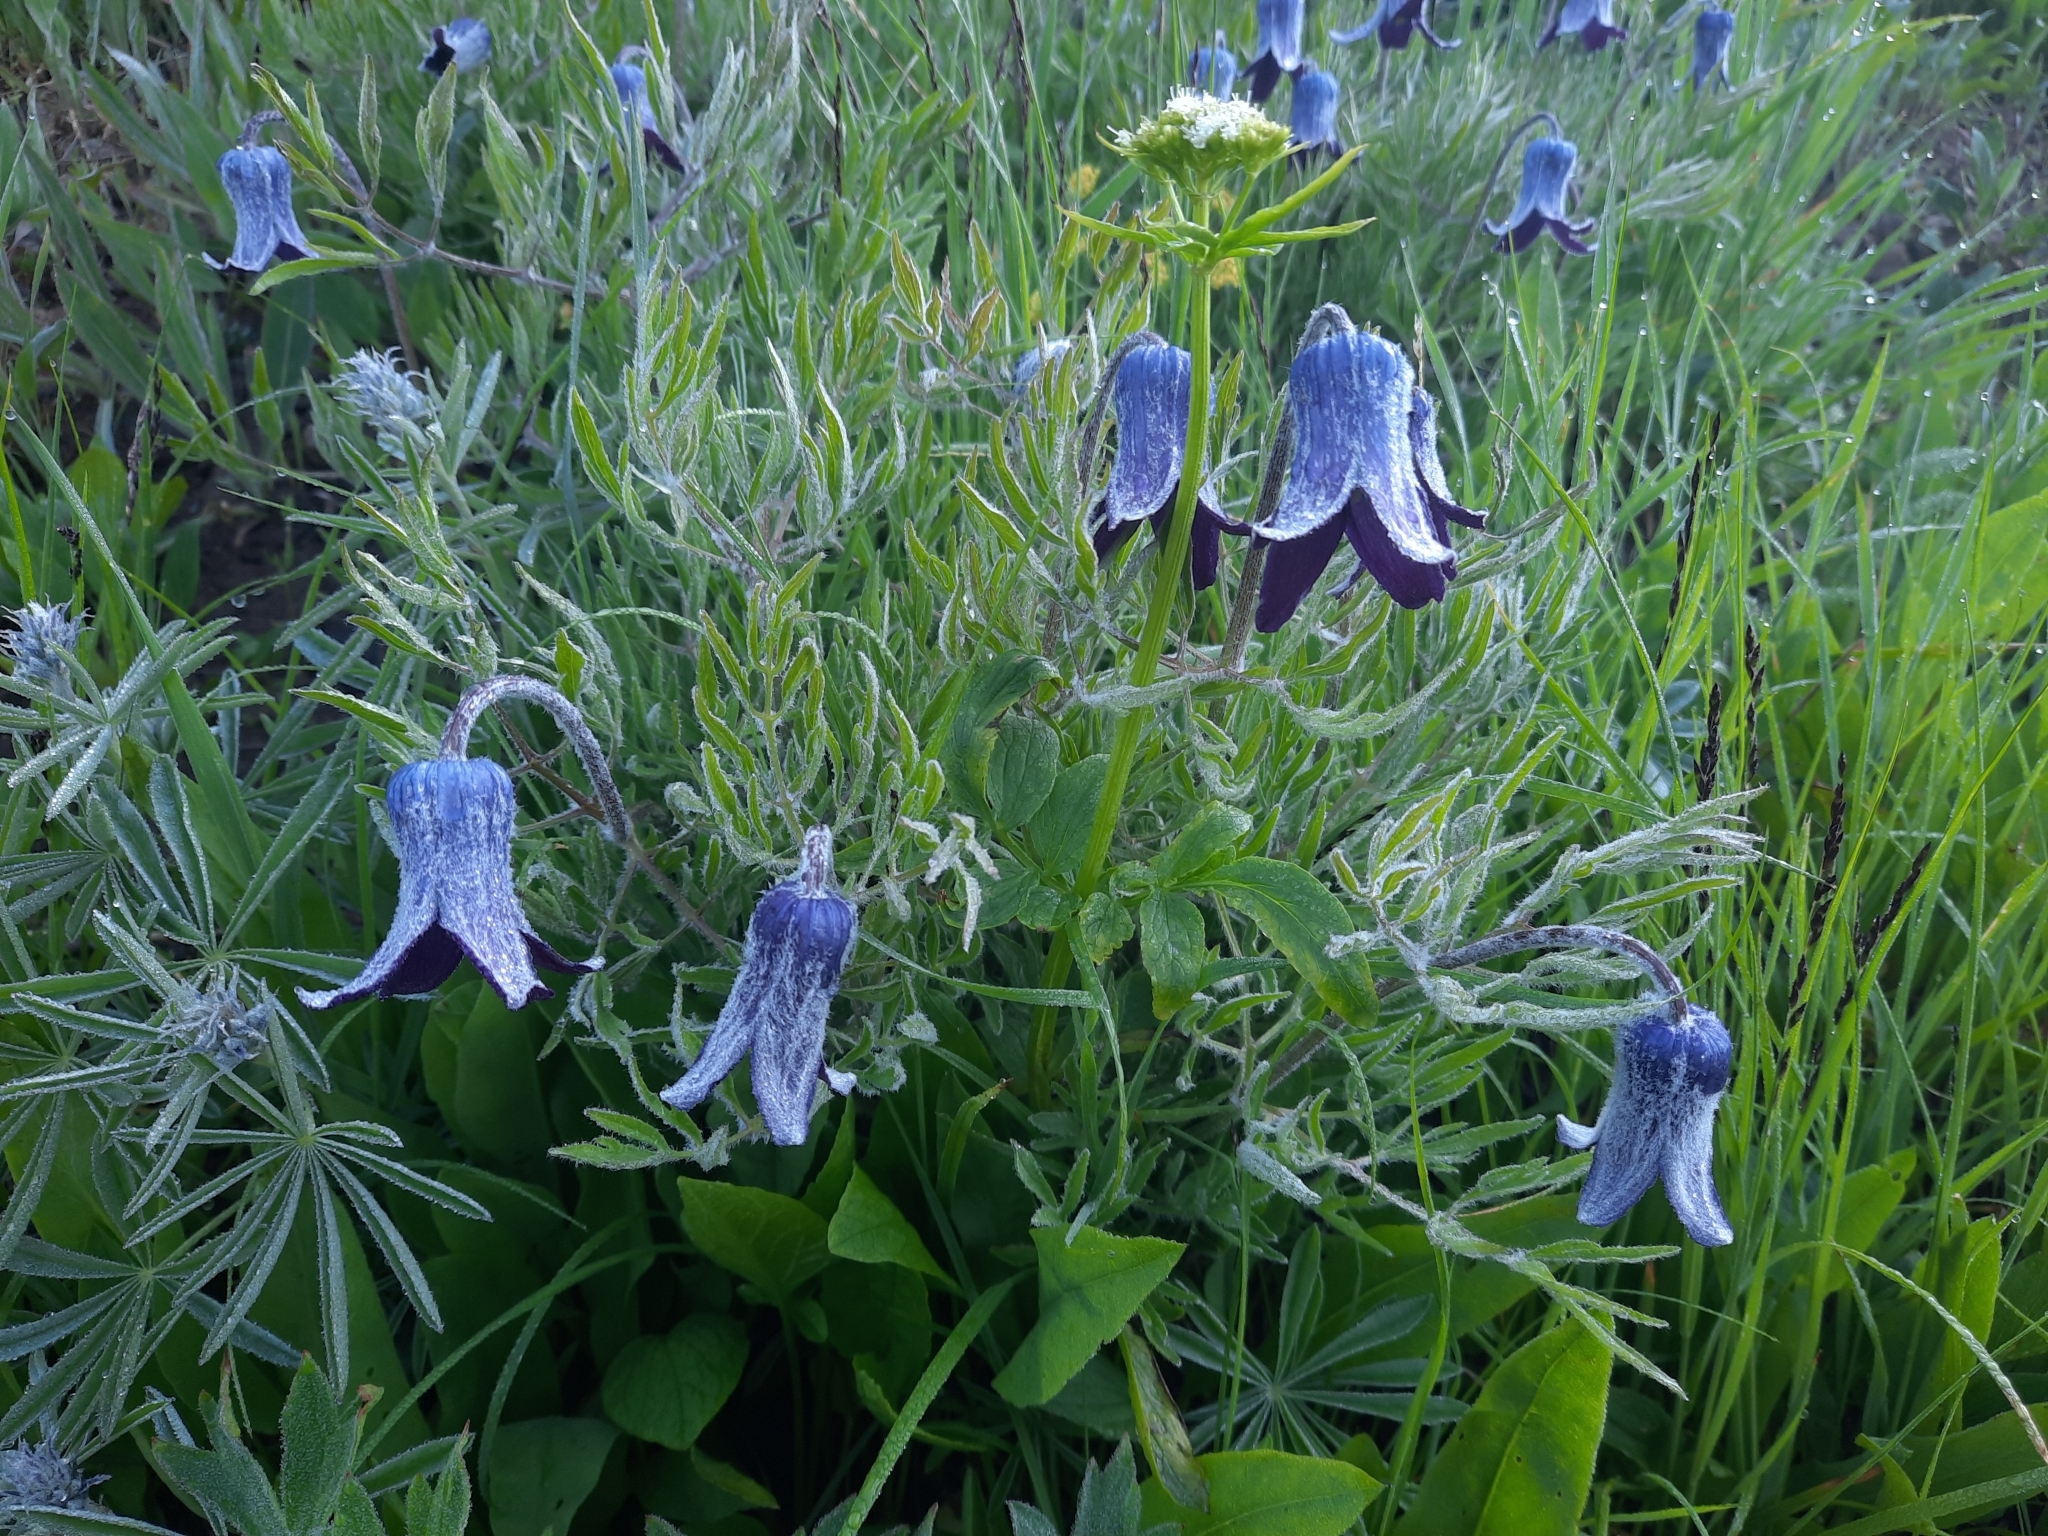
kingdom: Plantae
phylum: Tracheophyta
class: Magnoliopsida
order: Ranunculales
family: Ranunculaceae
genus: Clematis
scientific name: Clematis hirsutissima
